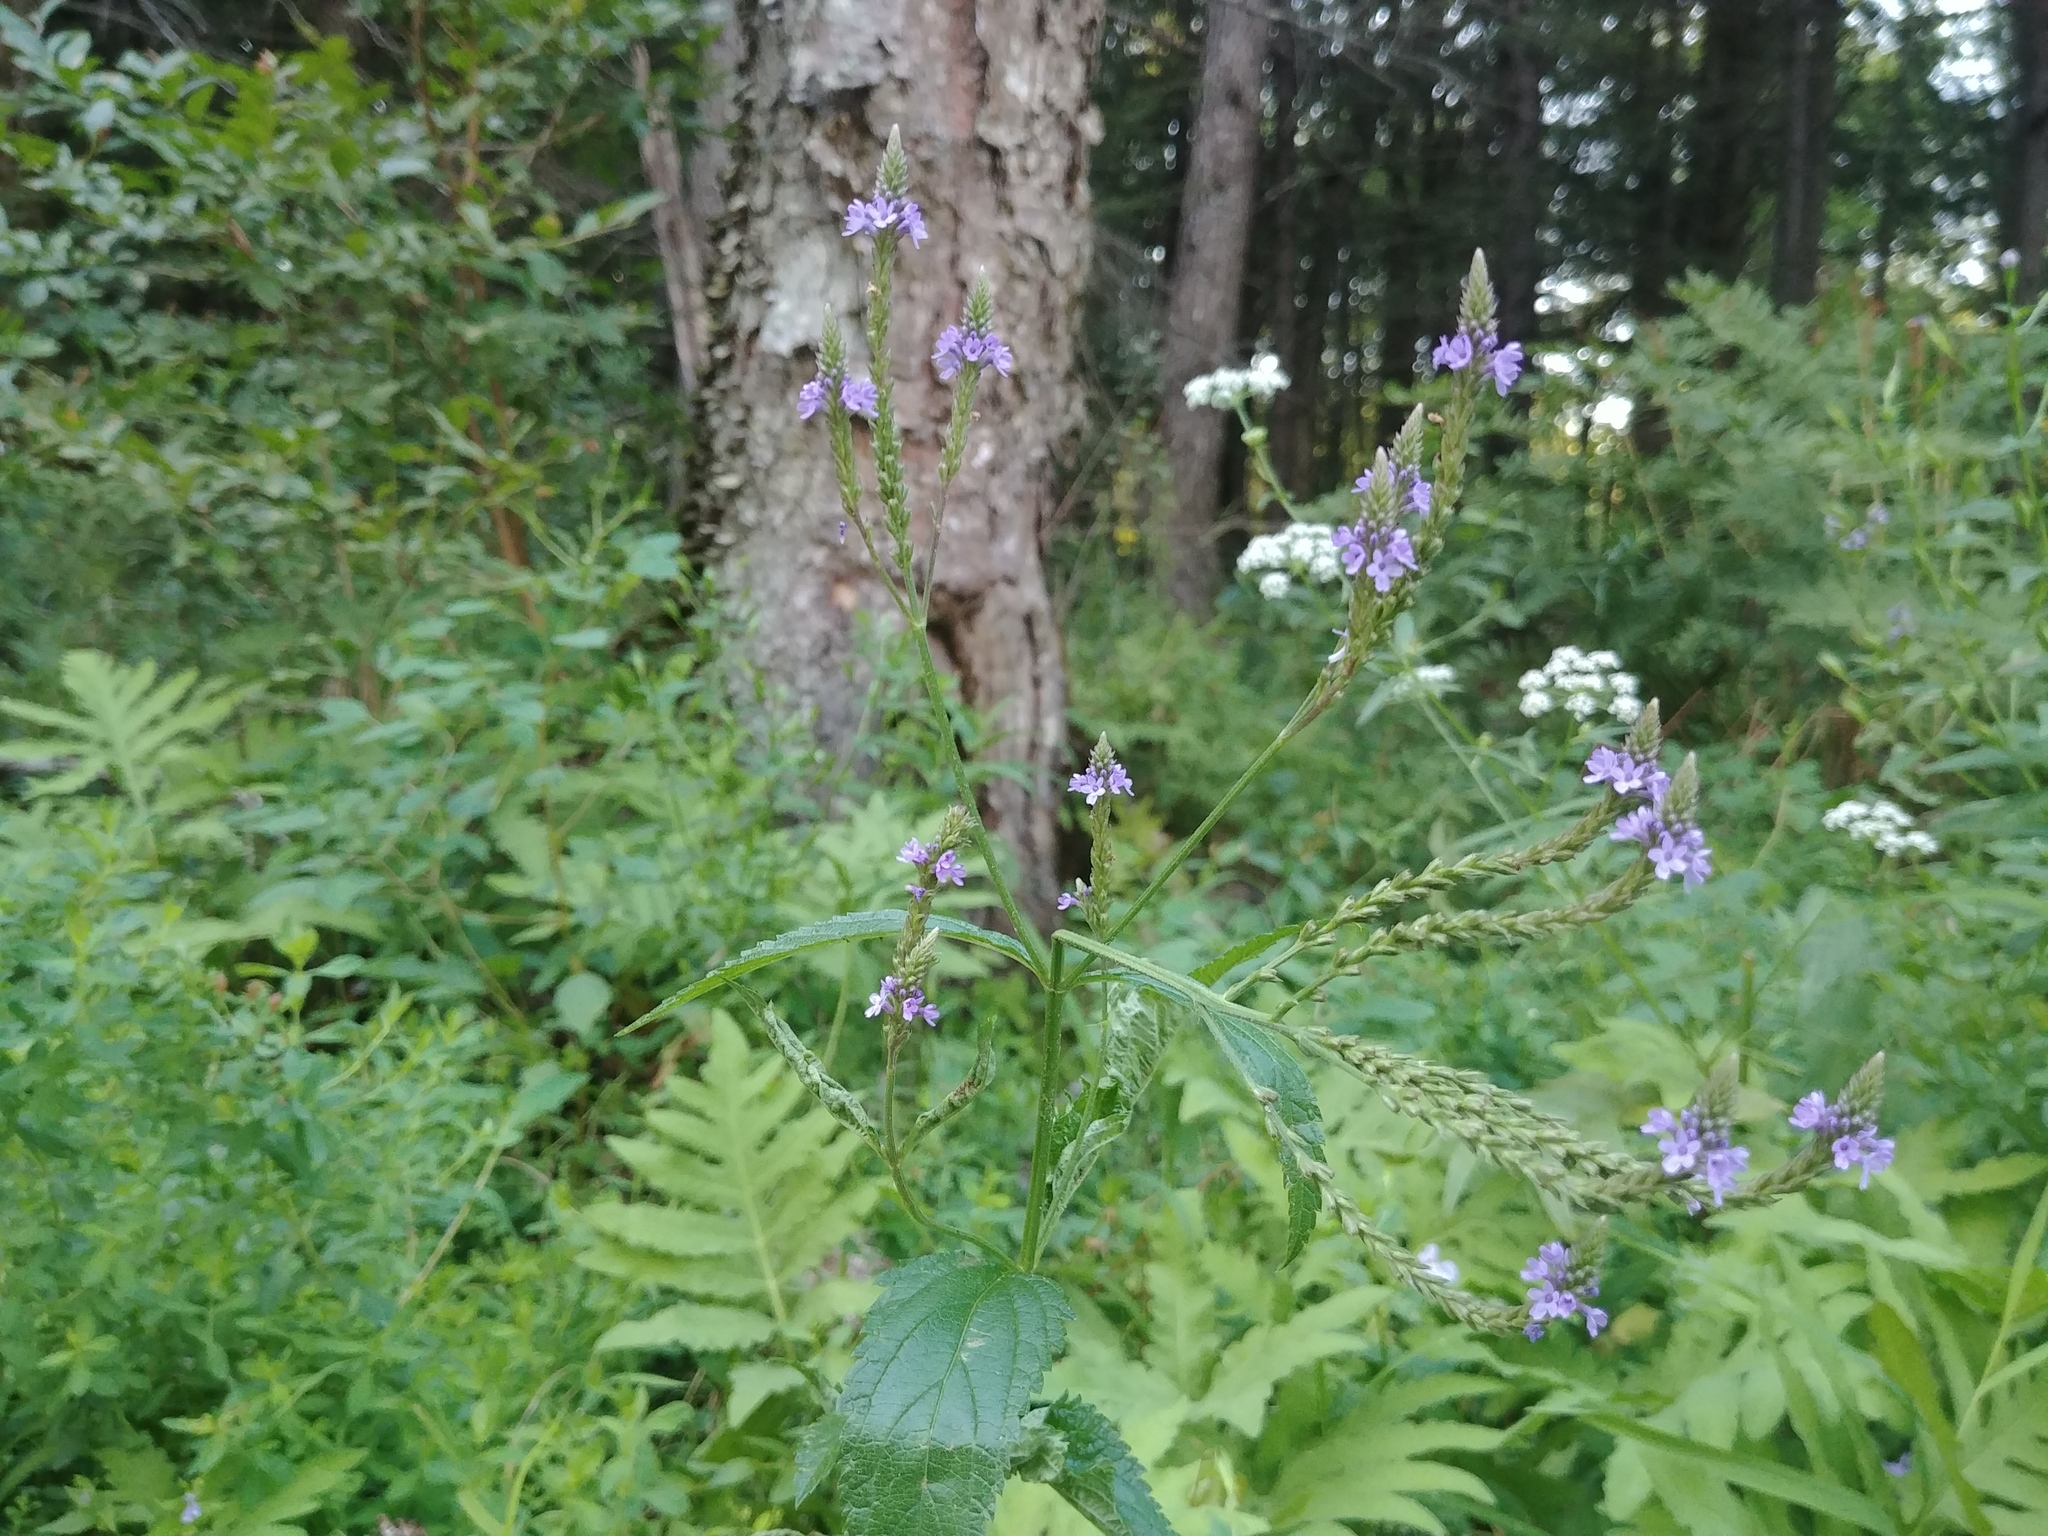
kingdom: Plantae
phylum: Tracheophyta
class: Magnoliopsida
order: Lamiales
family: Verbenaceae
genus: Verbena
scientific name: Verbena hastata
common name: American blue vervain
